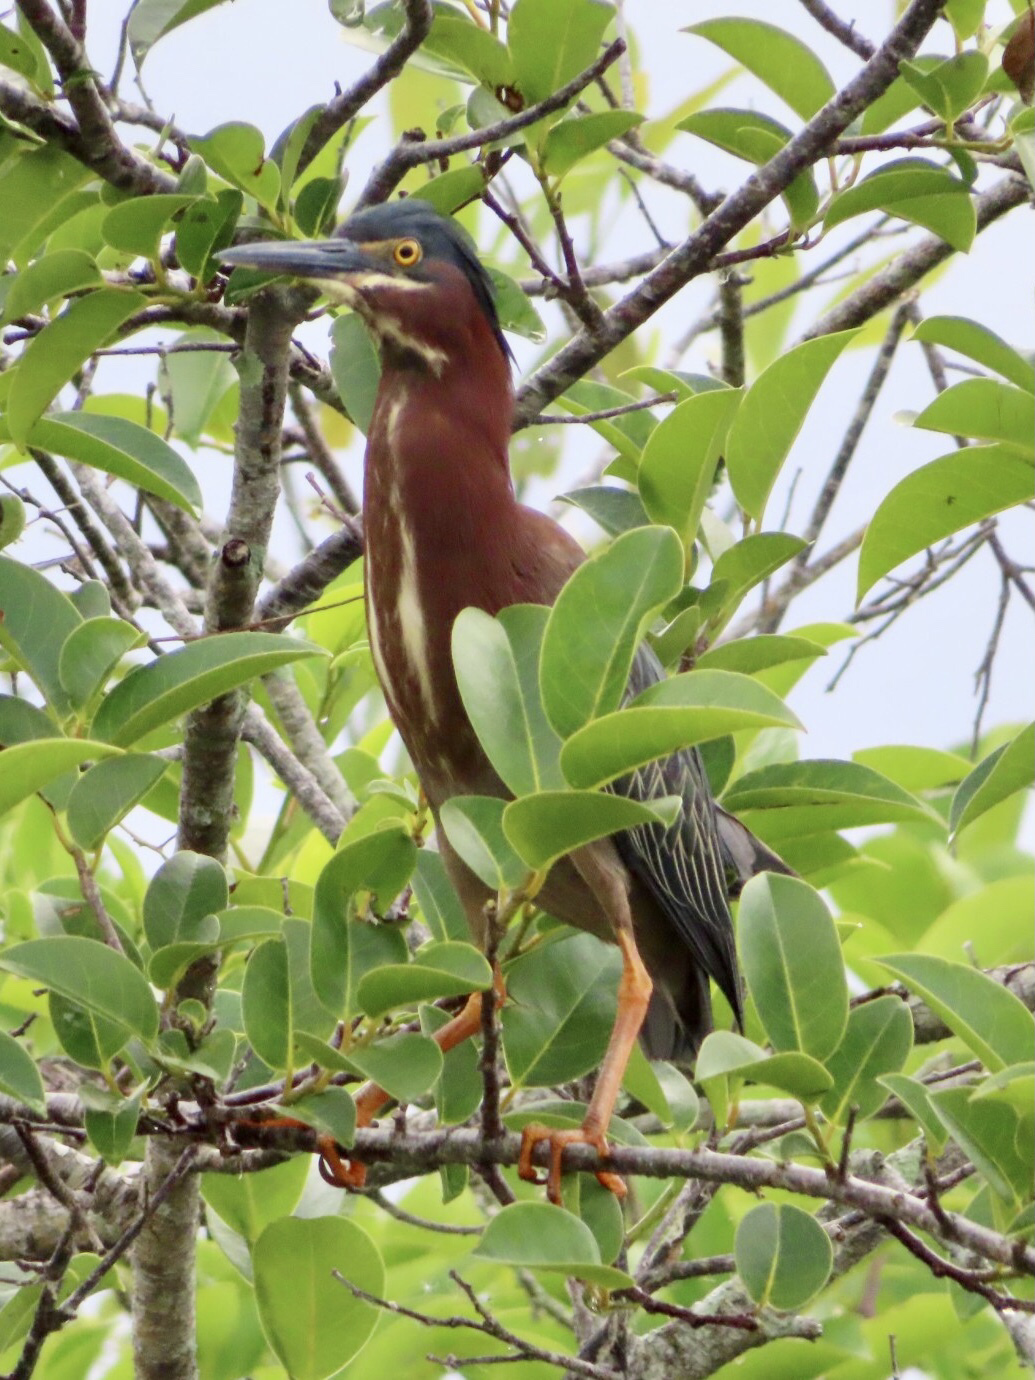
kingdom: Animalia
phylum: Chordata
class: Aves
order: Pelecaniformes
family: Ardeidae
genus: Butorides
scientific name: Butorides virescens
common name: Green heron
